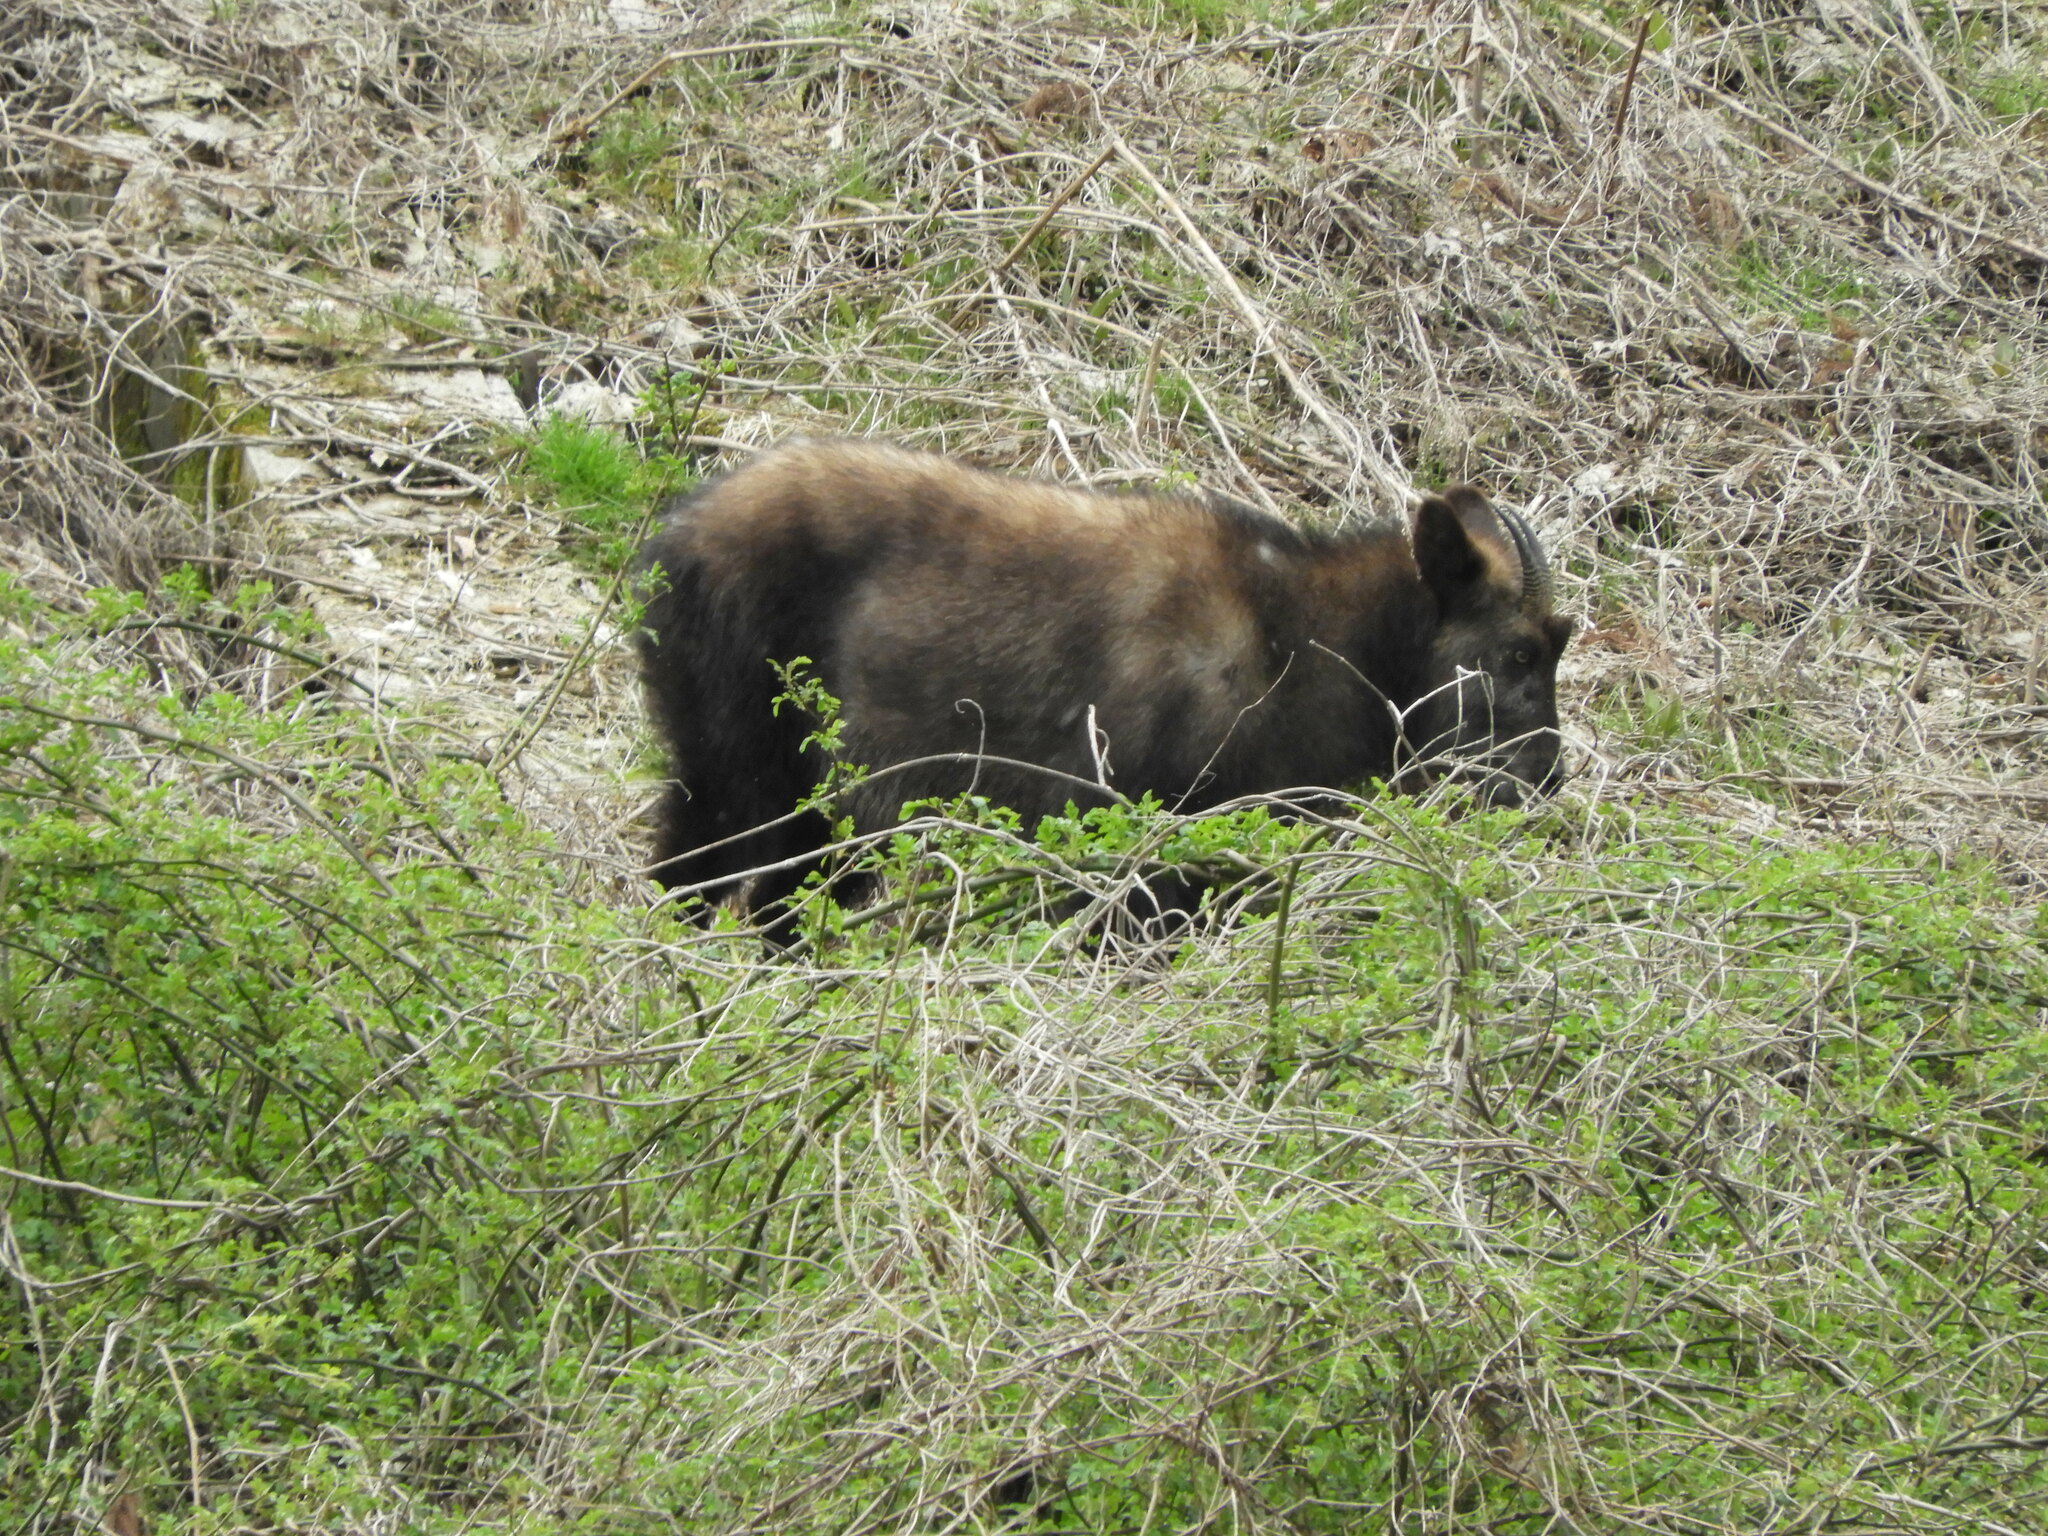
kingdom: Animalia
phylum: Chordata
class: Mammalia
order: Artiodactyla
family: Bovidae
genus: Capricornis
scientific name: Capricornis crispus
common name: Japanese serow
